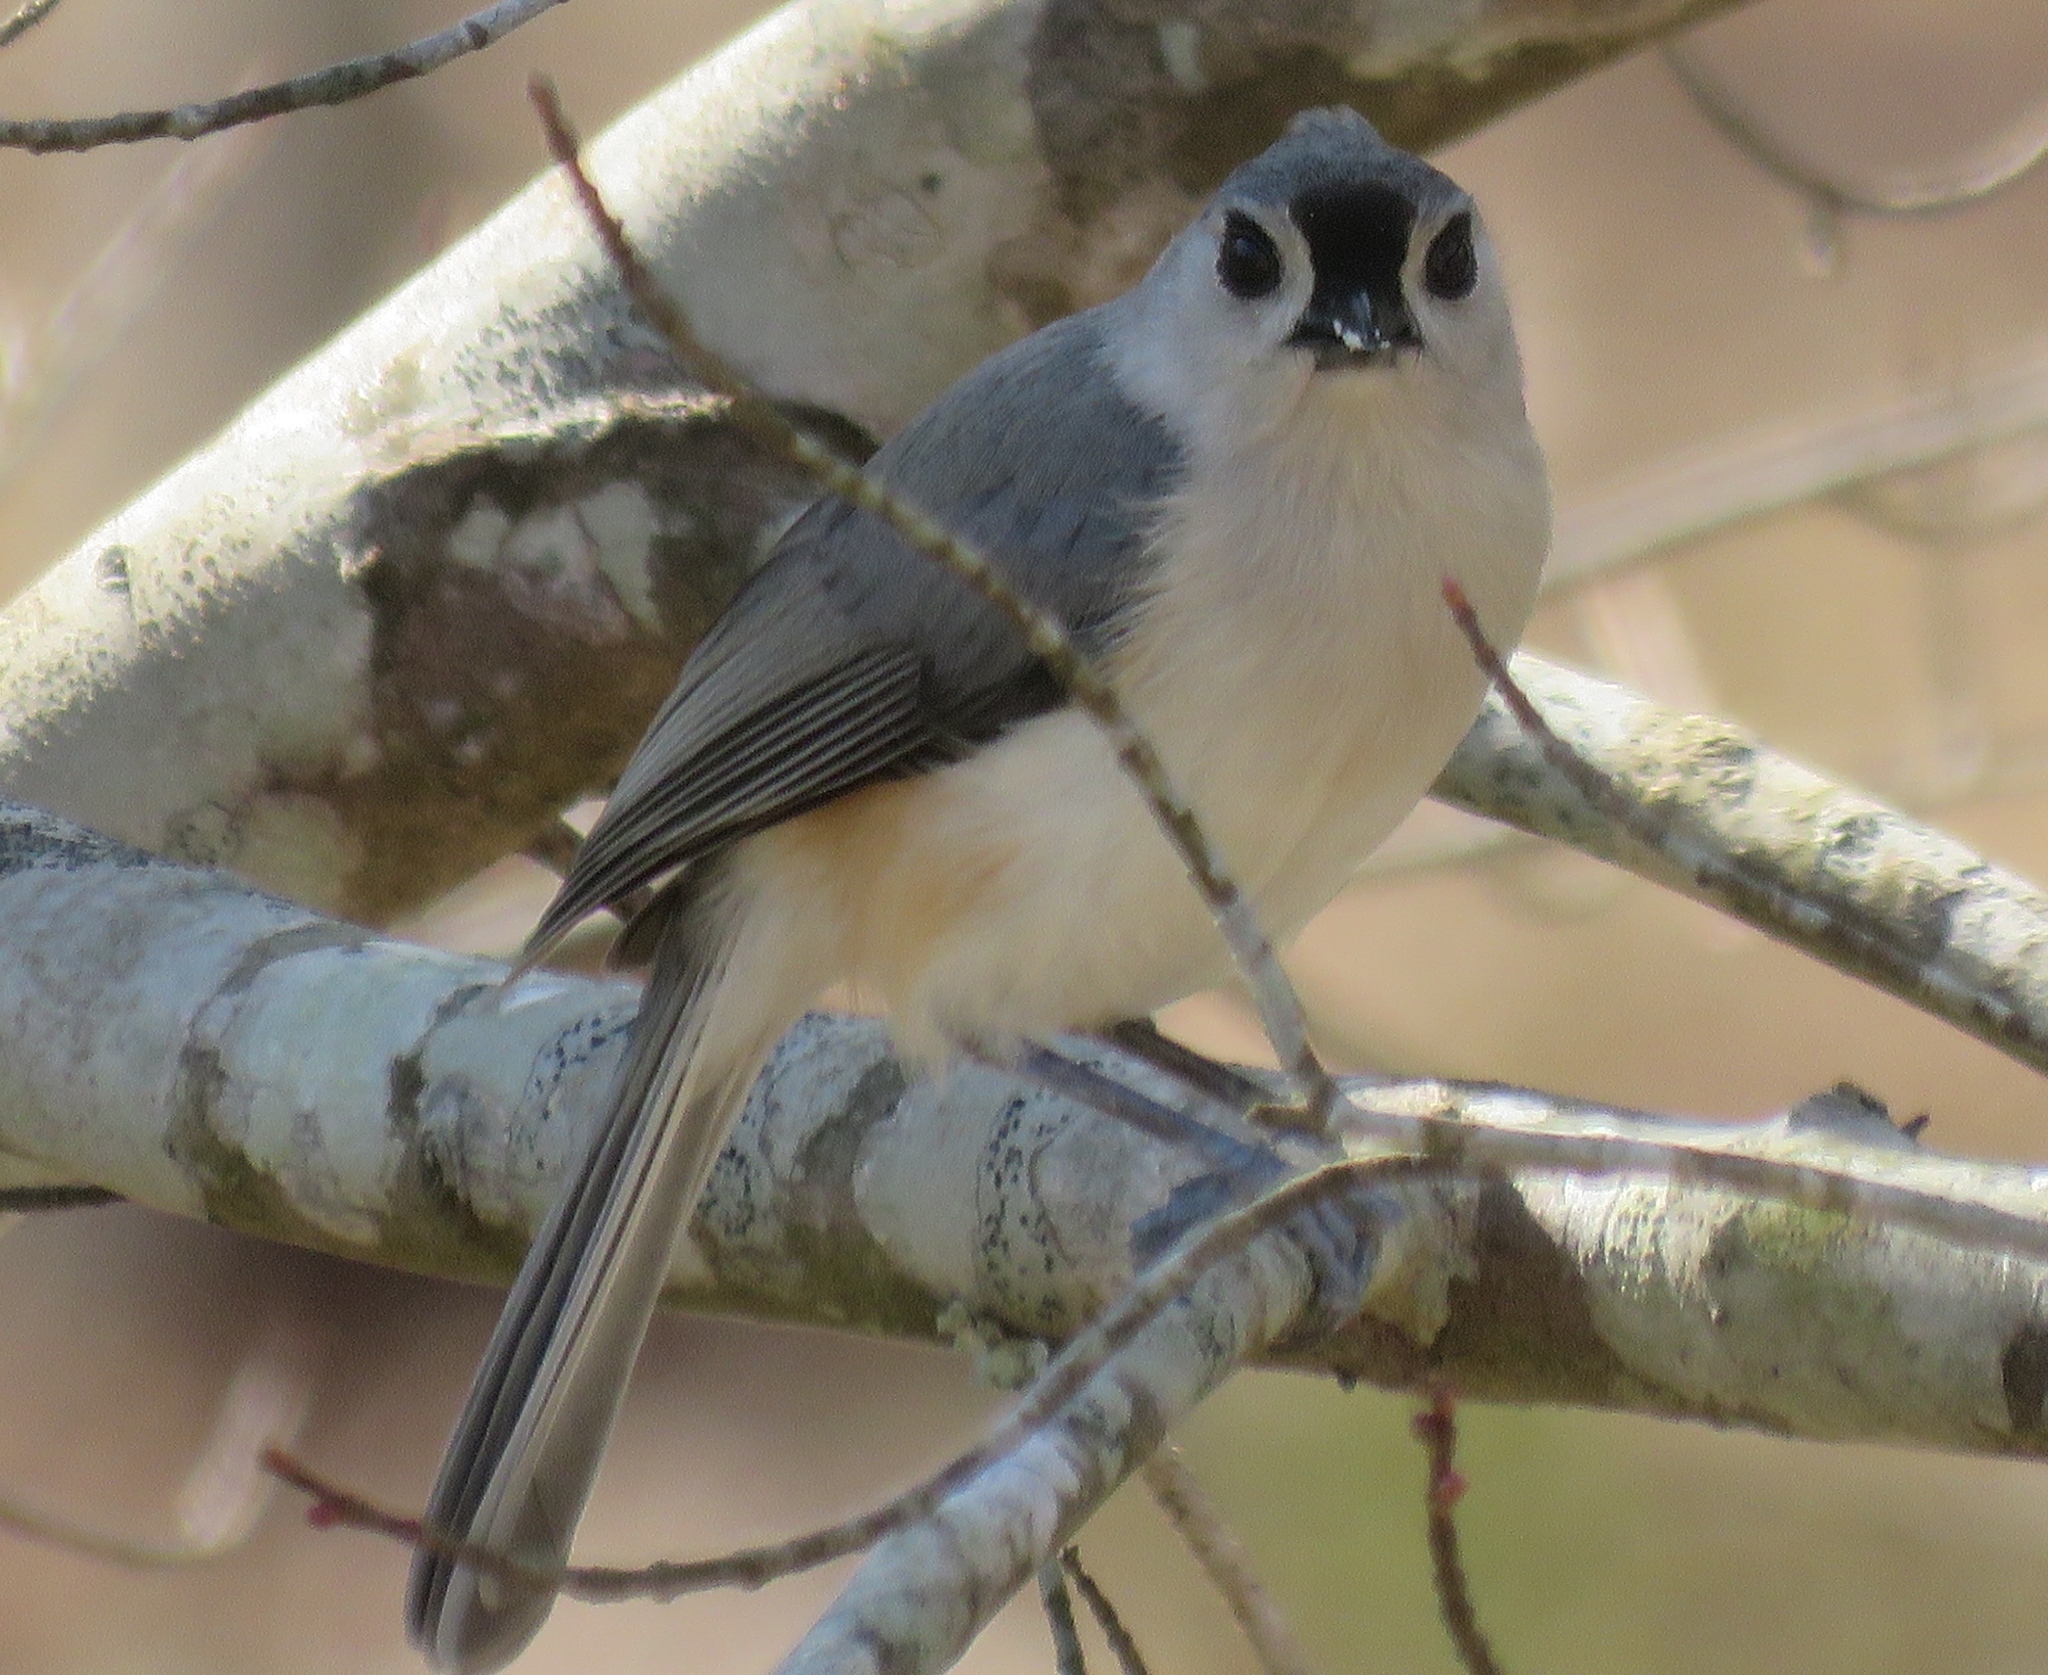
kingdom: Animalia
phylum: Chordata
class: Aves
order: Passeriformes
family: Paridae
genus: Baeolophus
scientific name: Baeolophus bicolor
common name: Tufted titmouse
